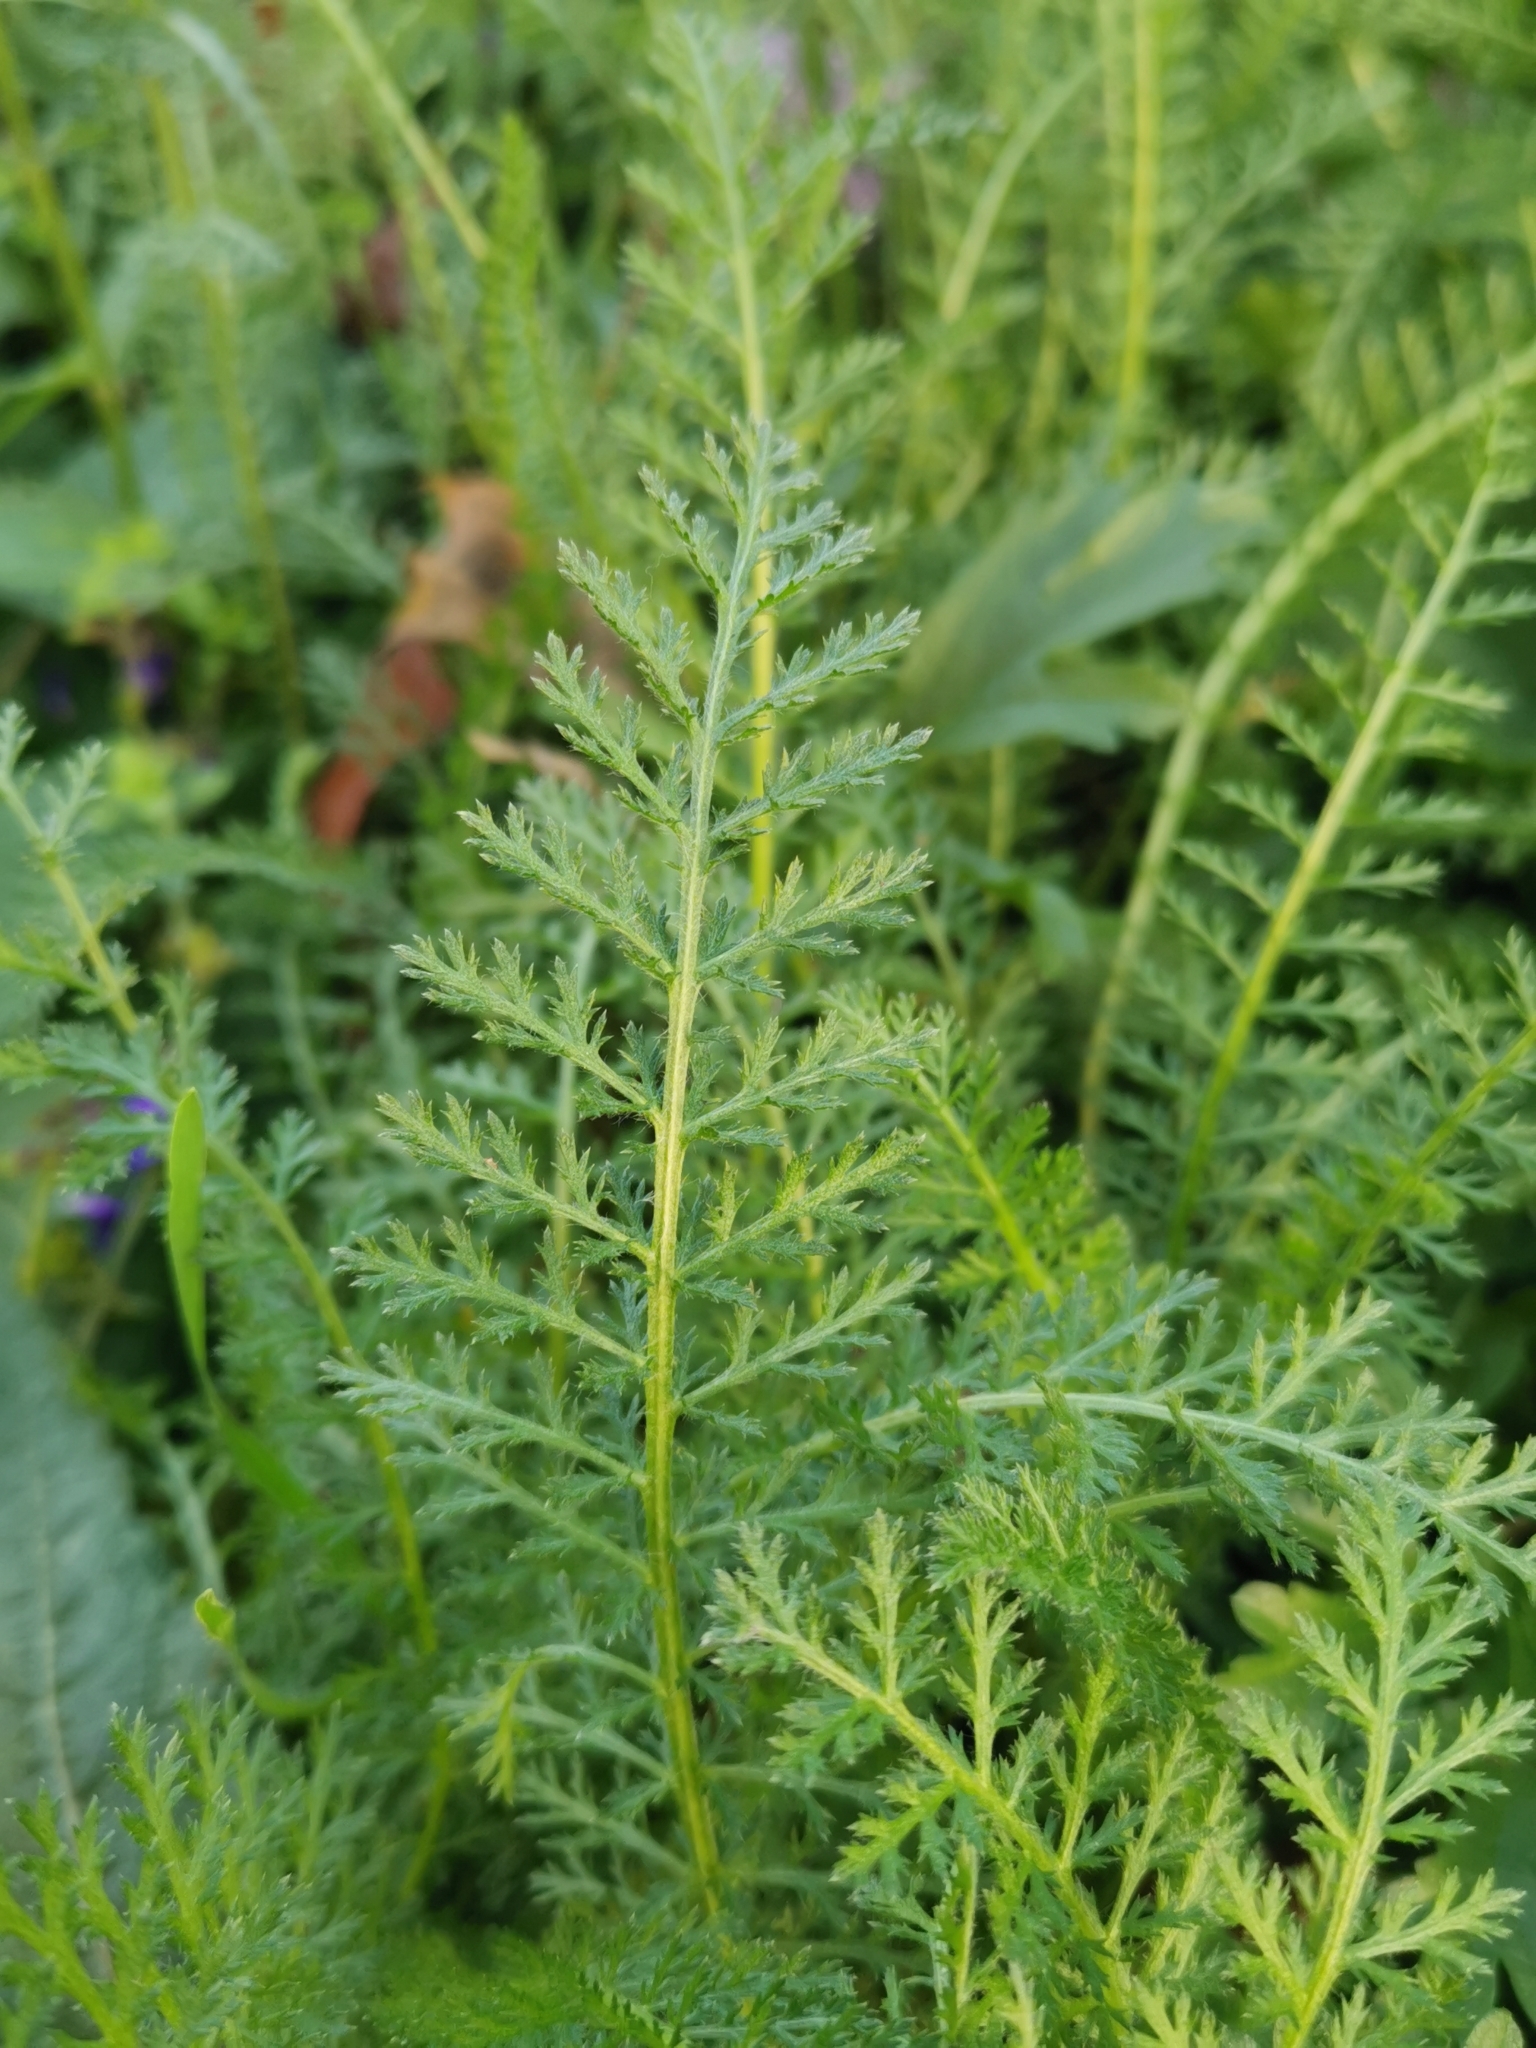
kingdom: Plantae
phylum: Tracheophyta
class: Magnoliopsida
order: Asterales
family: Asteraceae
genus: Achillea
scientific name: Achillea millefolium
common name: Yarrow
